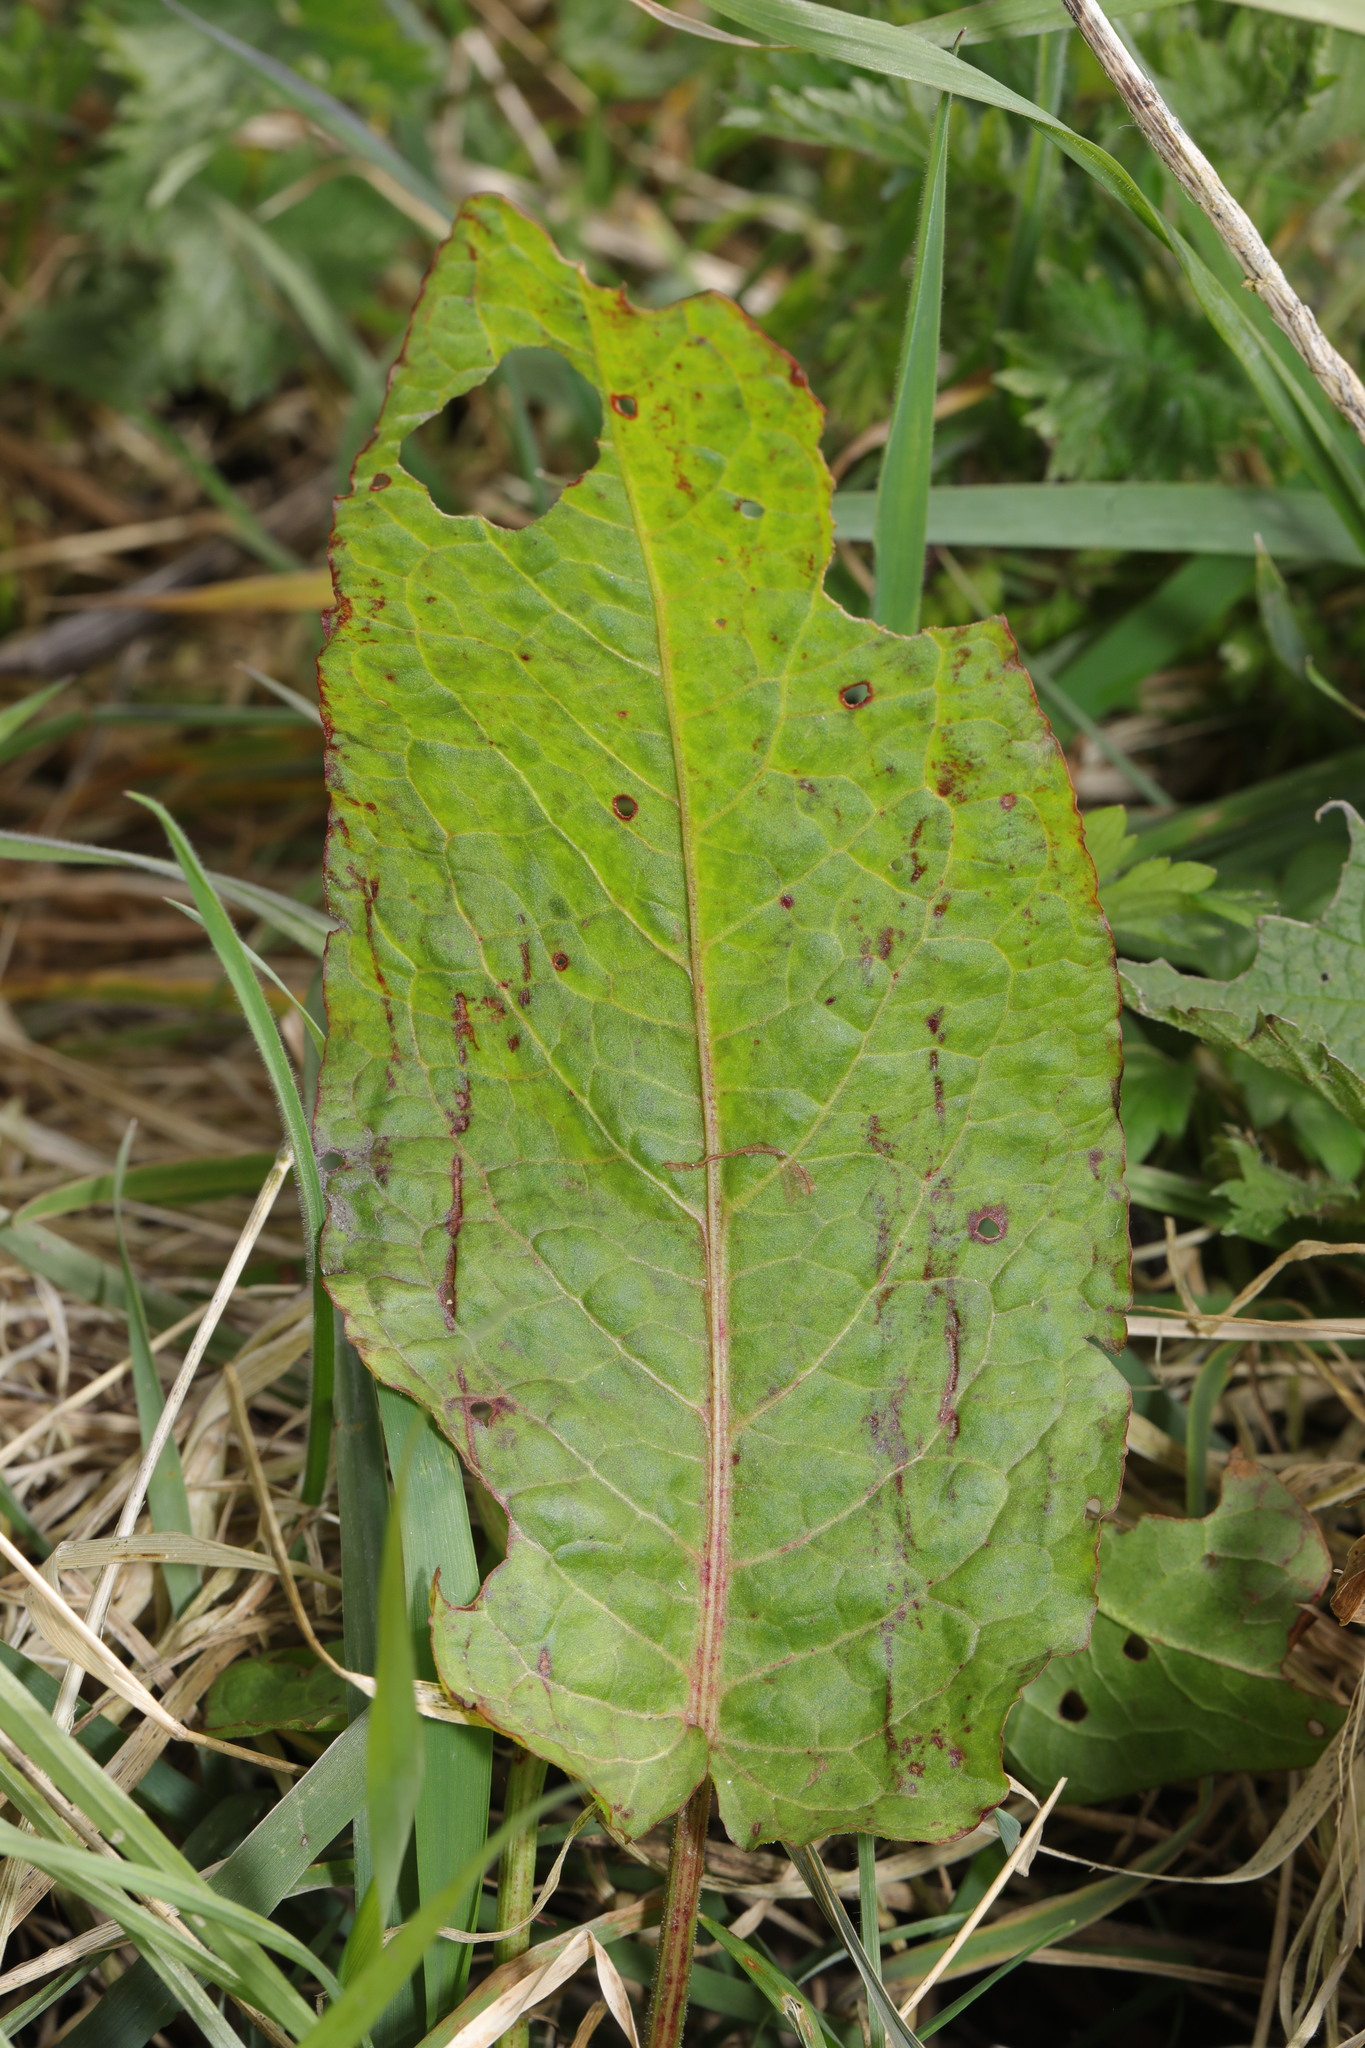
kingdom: Plantae
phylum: Tracheophyta
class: Magnoliopsida
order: Caryophyllales
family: Polygonaceae
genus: Rumex
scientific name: Rumex obtusifolius
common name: Bitter dock
